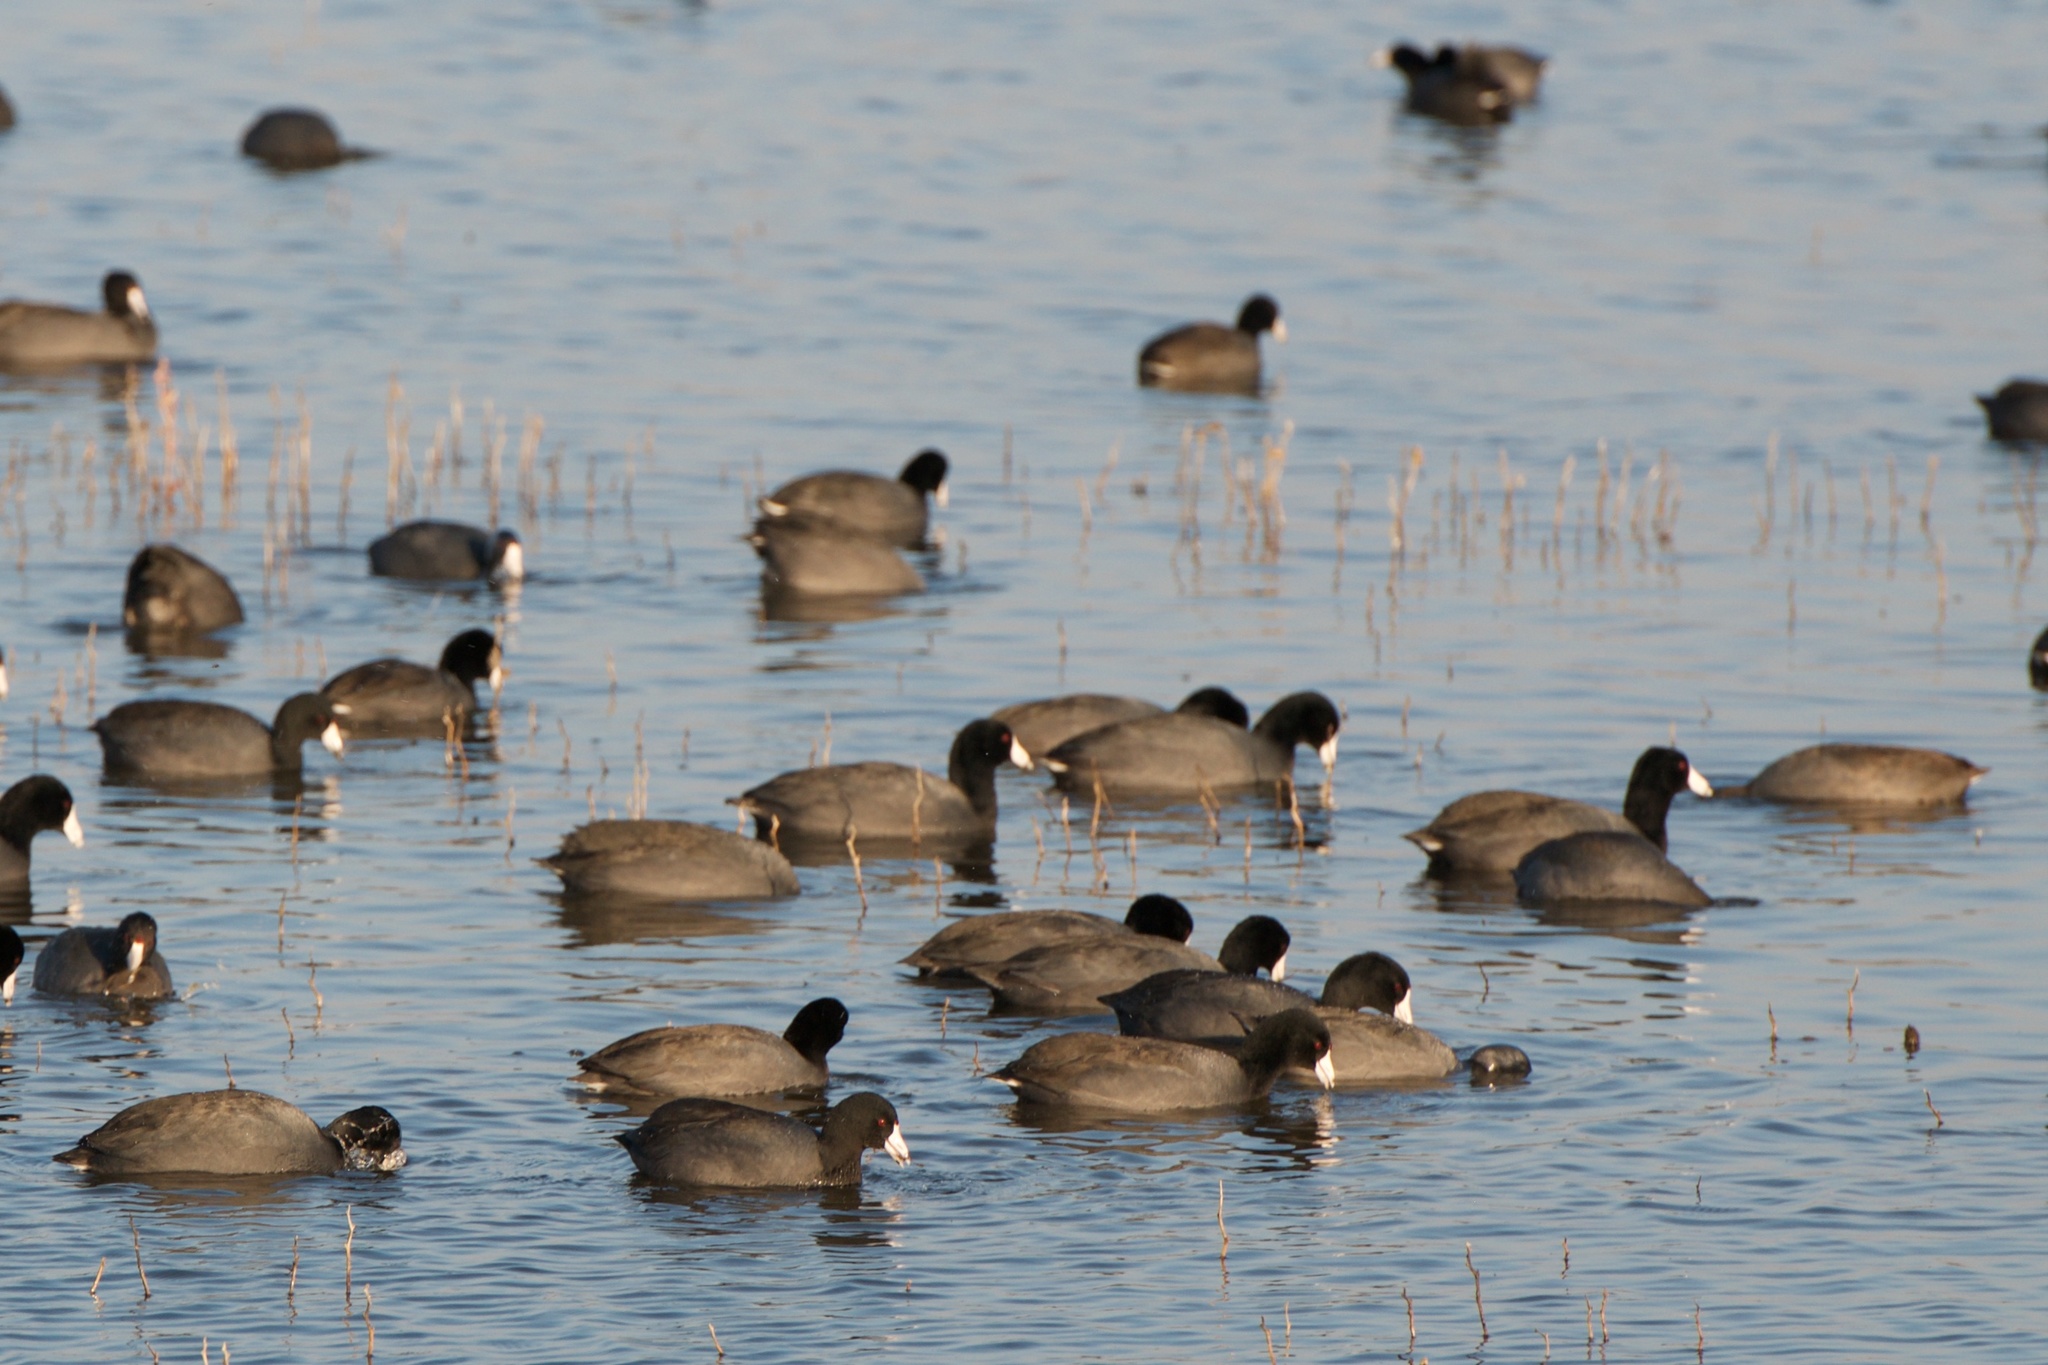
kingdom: Animalia
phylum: Chordata
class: Aves
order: Gruiformes
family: Rallidae
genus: Fulica
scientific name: Fulica americana
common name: American coot
